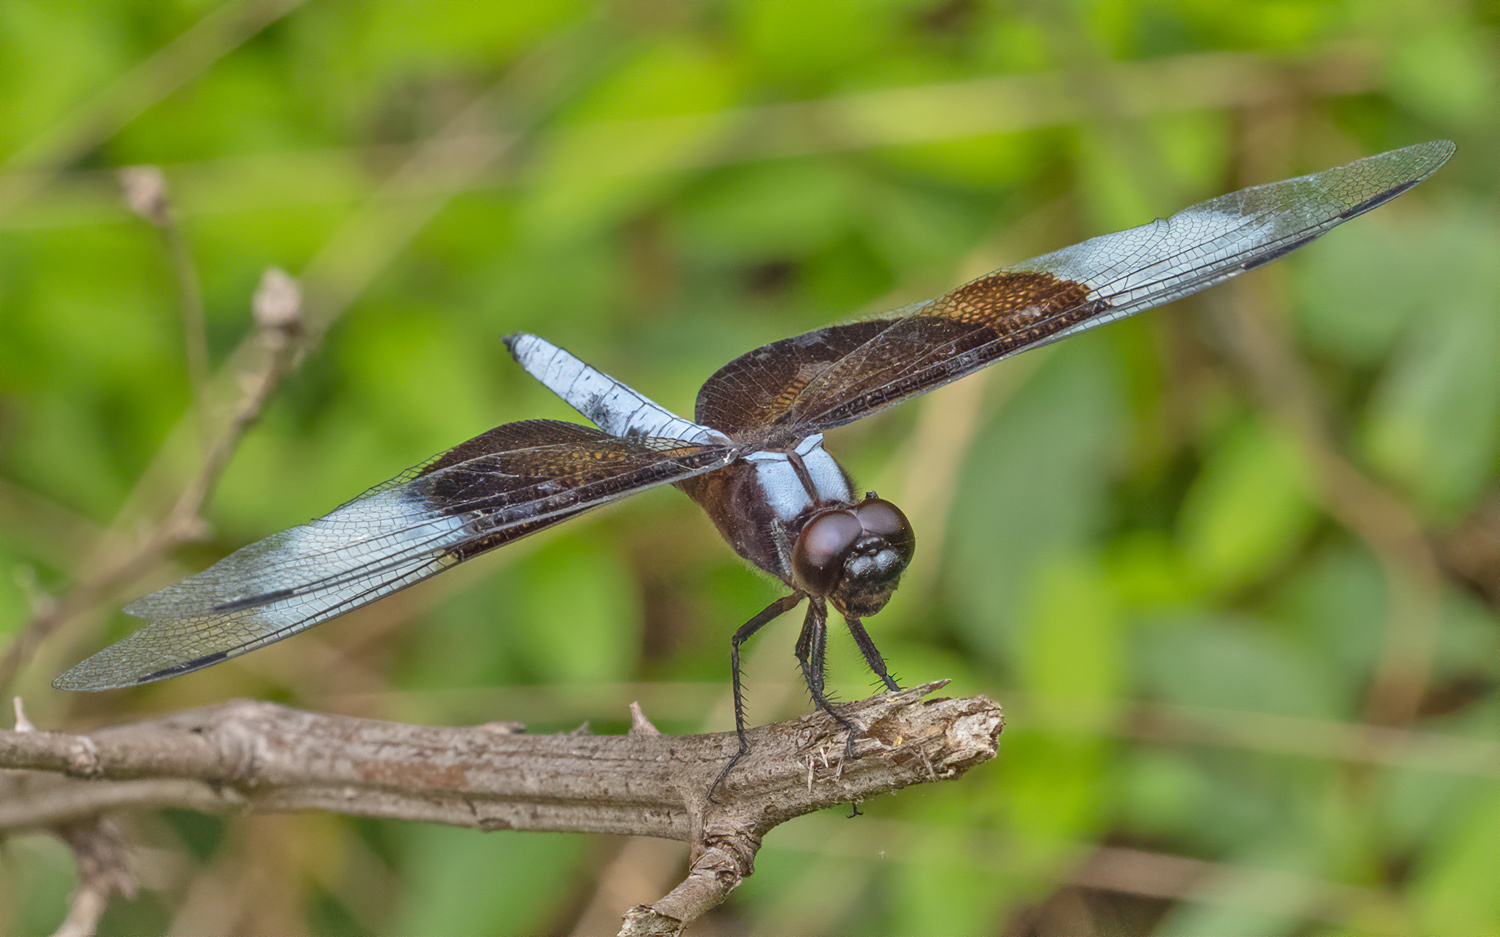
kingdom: Animalia
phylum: Arthropoda
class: Insecta
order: Odonata
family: Libellulidae
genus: Libellula
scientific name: Libellula luctuosa
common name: Widow skimmer
